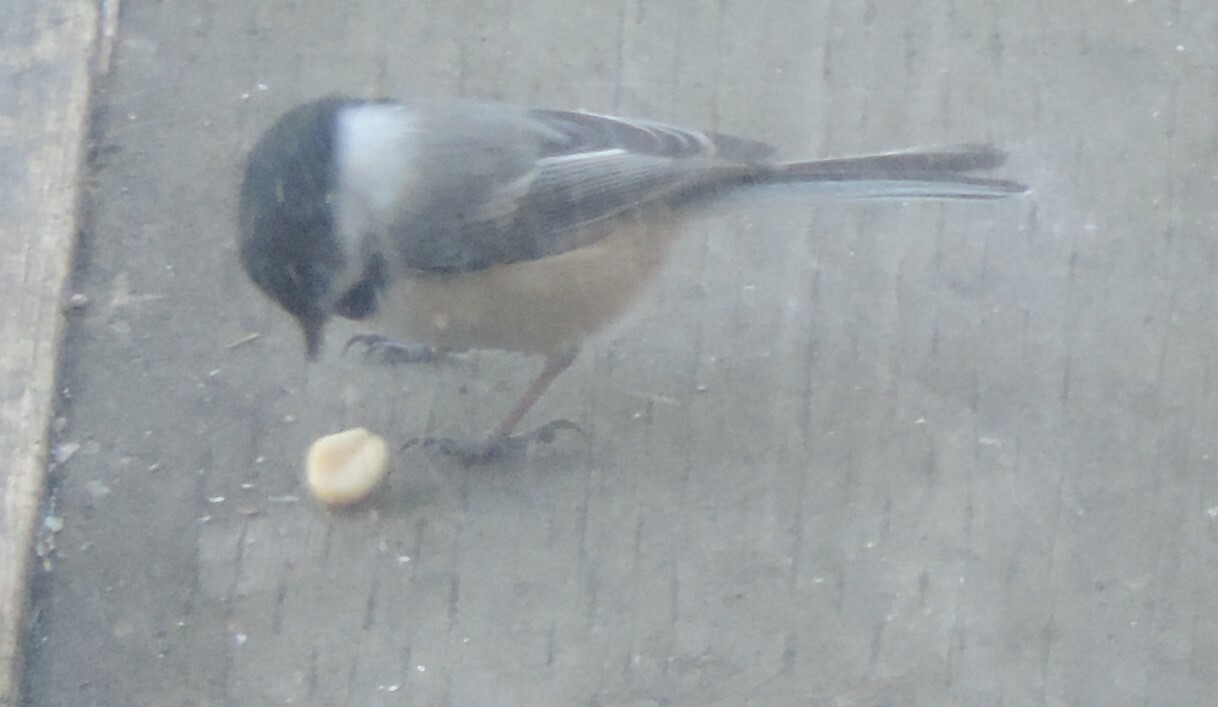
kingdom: Animalia
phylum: Chordata
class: Aves
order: Passeriformes
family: Paridae
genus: Poecile
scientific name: Poecile atricapillus
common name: Black-capped chickadee
